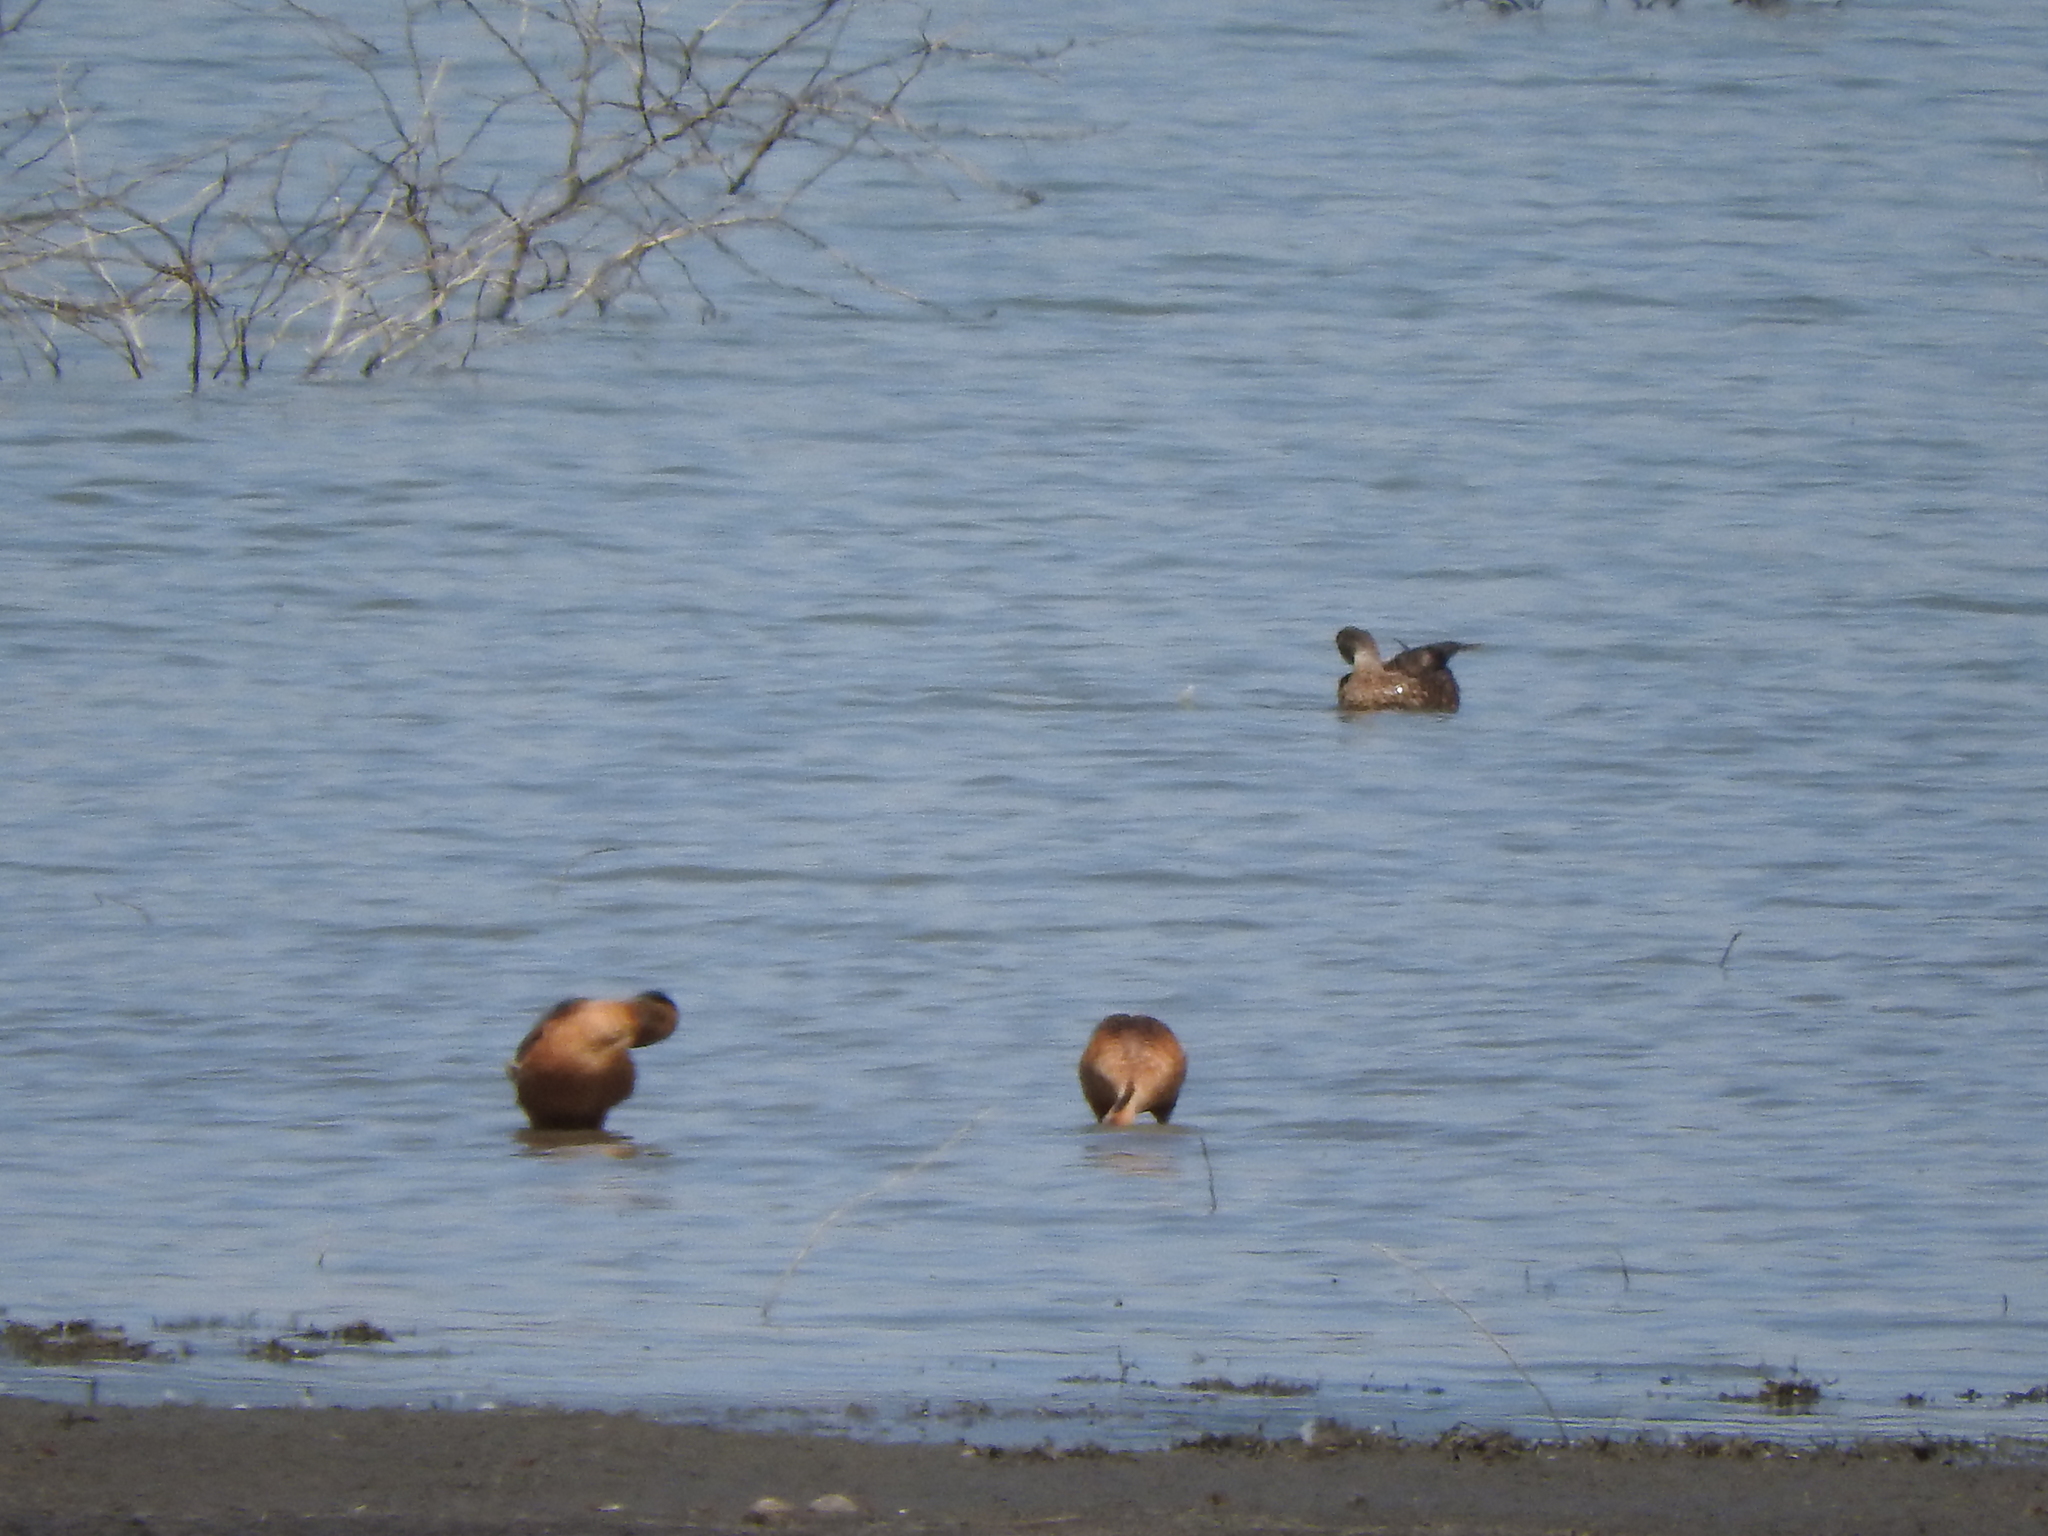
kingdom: Animalia
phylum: Chordata
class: Aves
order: Anseriformes
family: Anatidae
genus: Dendrocygna
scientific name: Dendrocygna bicolor
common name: Fulvous whistling duck
